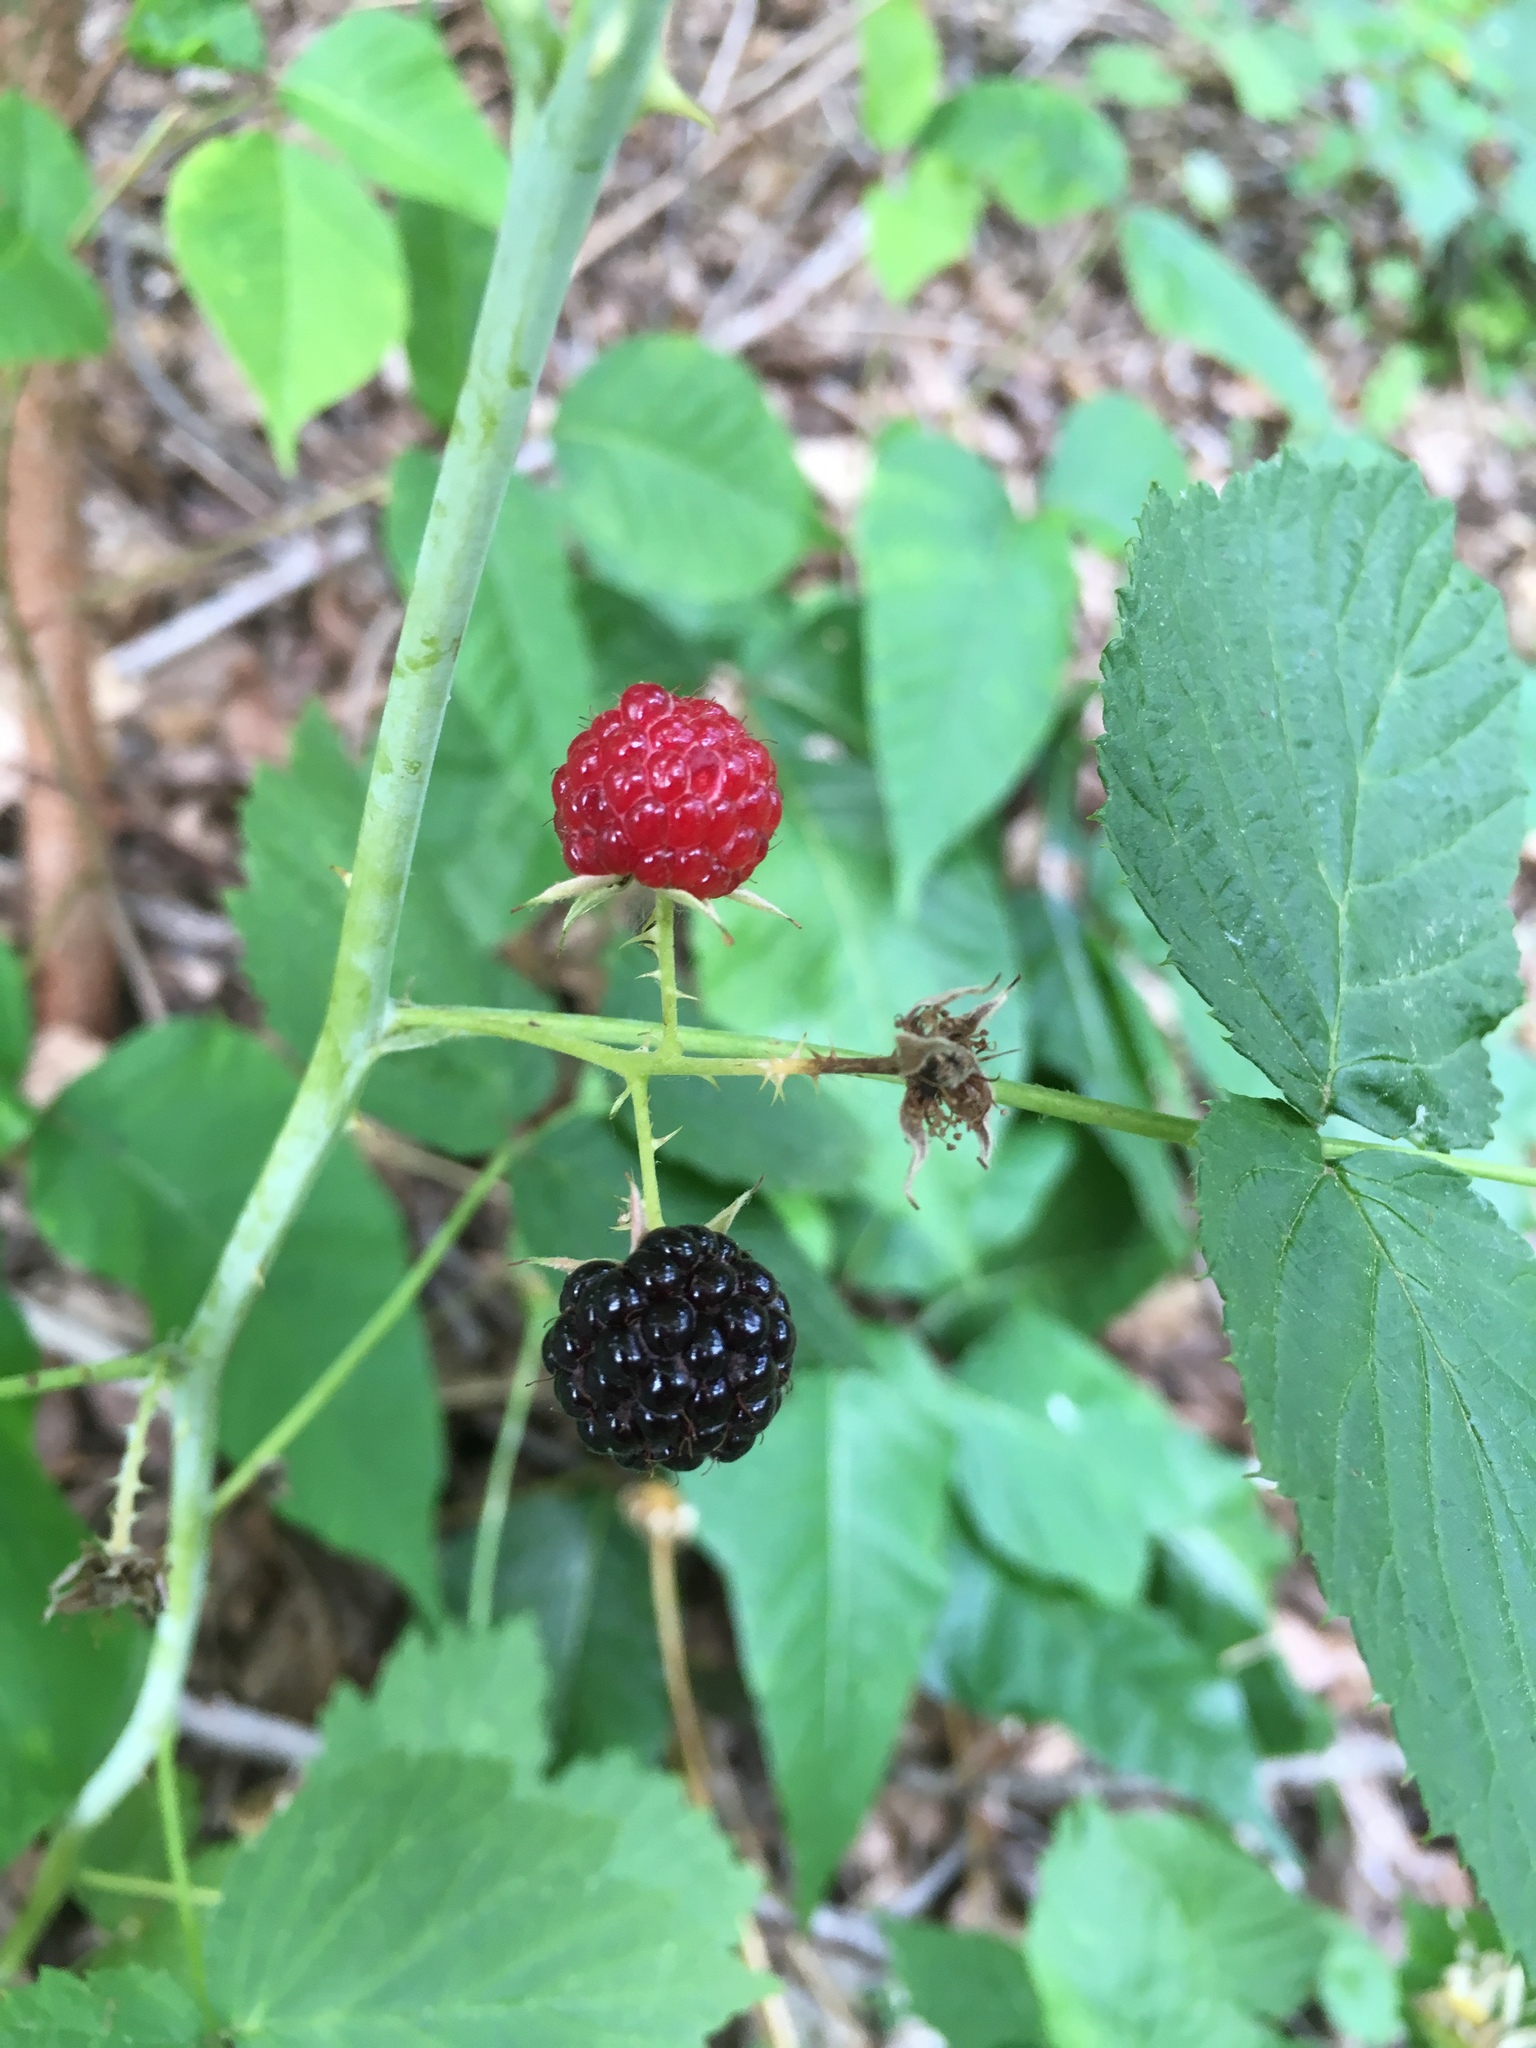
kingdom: Plantae
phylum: Tracheophyta
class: Magnoliopsida
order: Rosales
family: Rosaceae
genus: Rubus
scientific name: Rubus occidentalis
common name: Black raspberry
